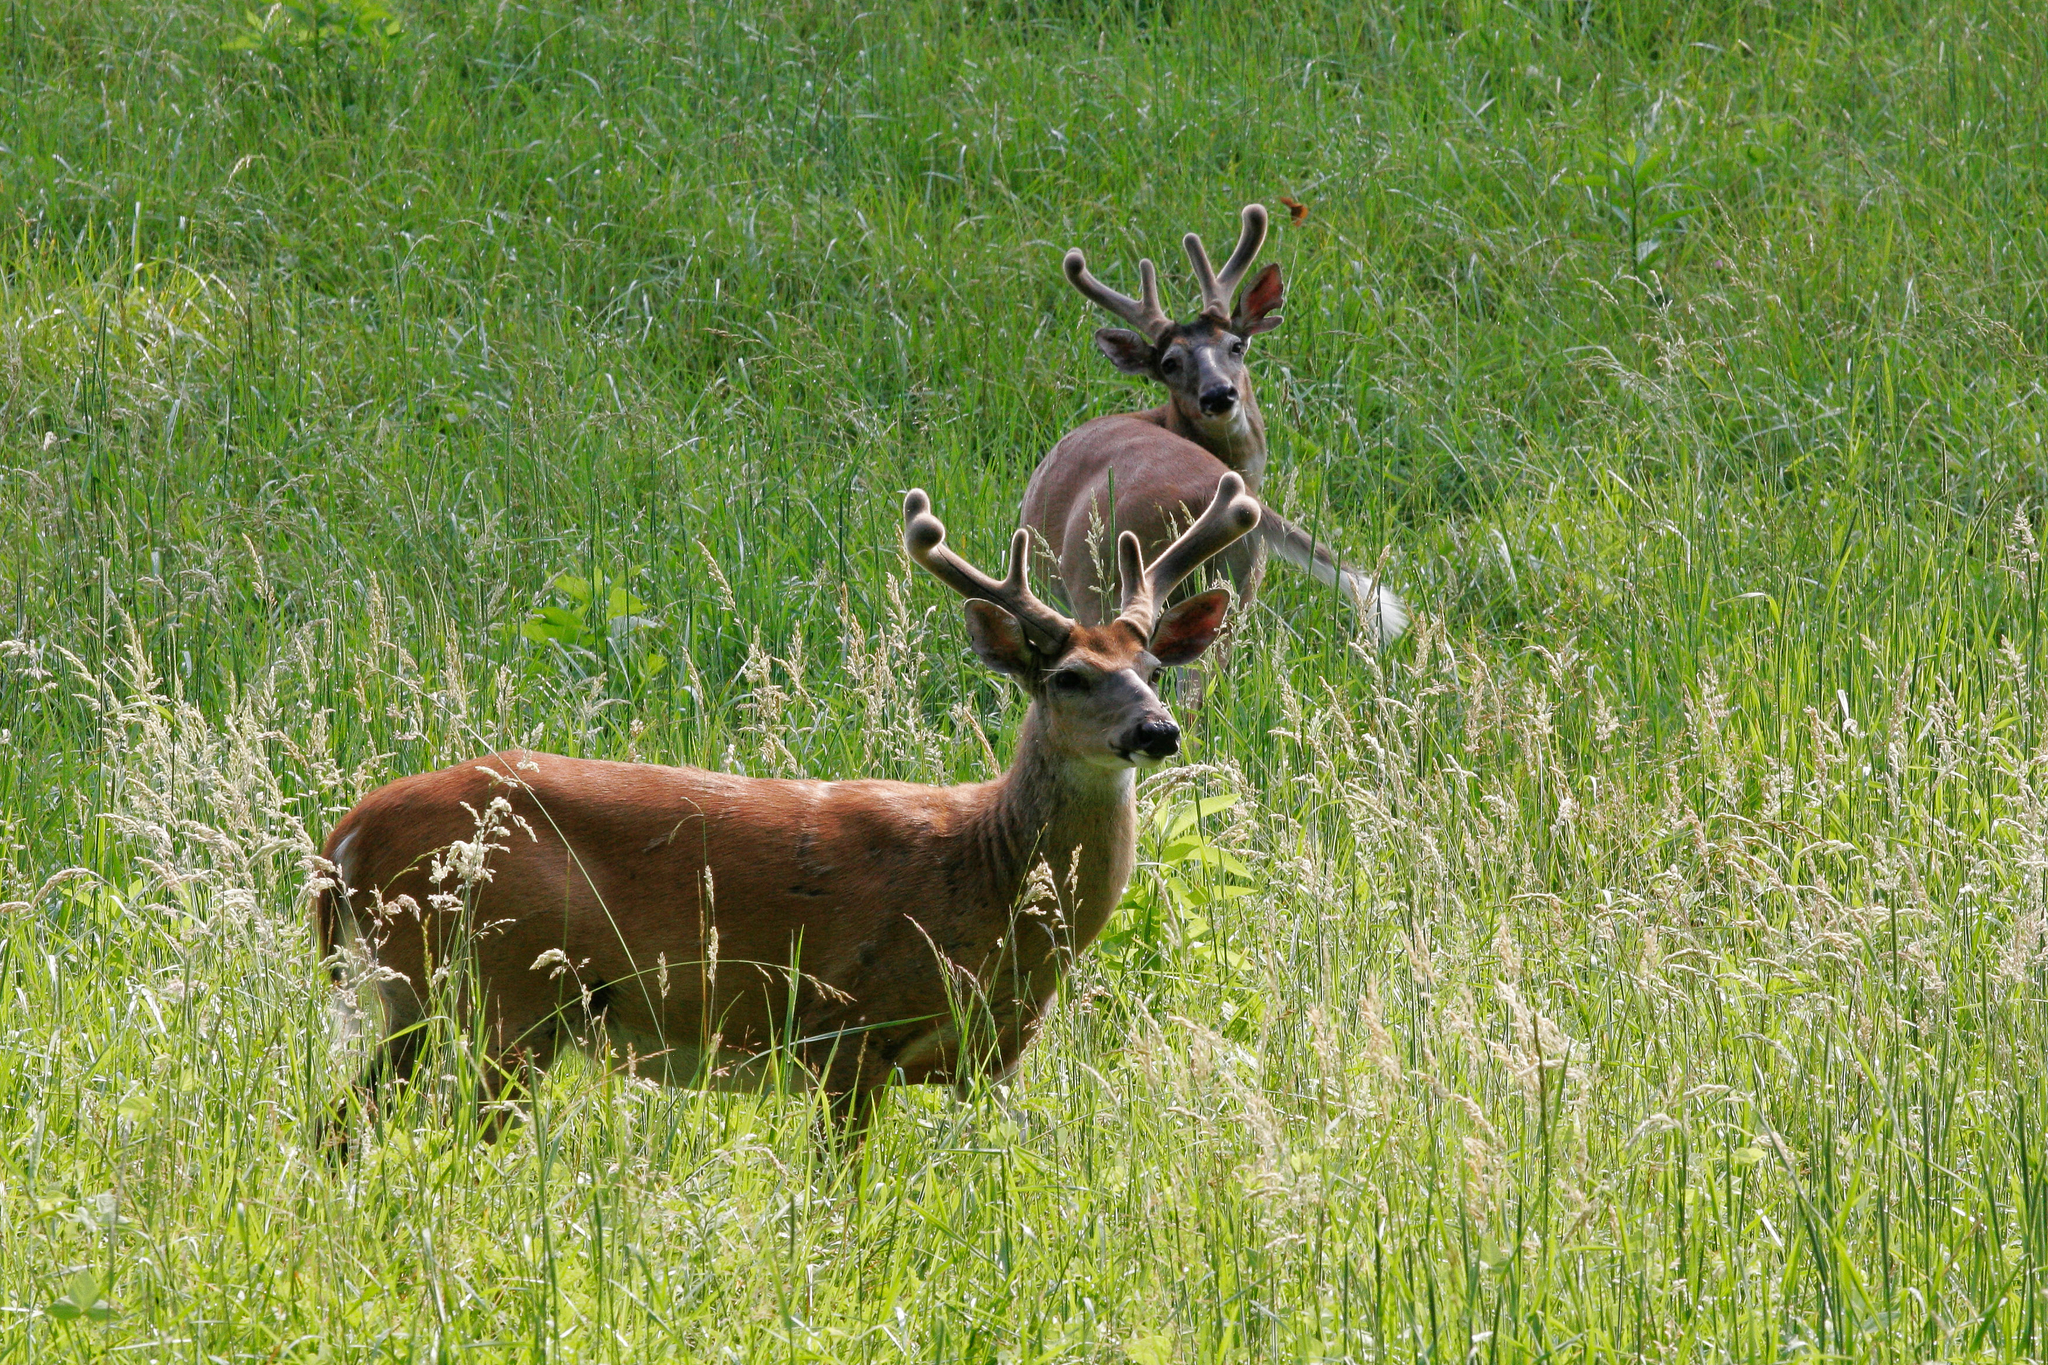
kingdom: Animalia
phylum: Chordata
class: Mammalia
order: Artiodactyla
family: Cervidae
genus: Odocoileus
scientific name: Odocoileus virginianus
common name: White-tailed deer
